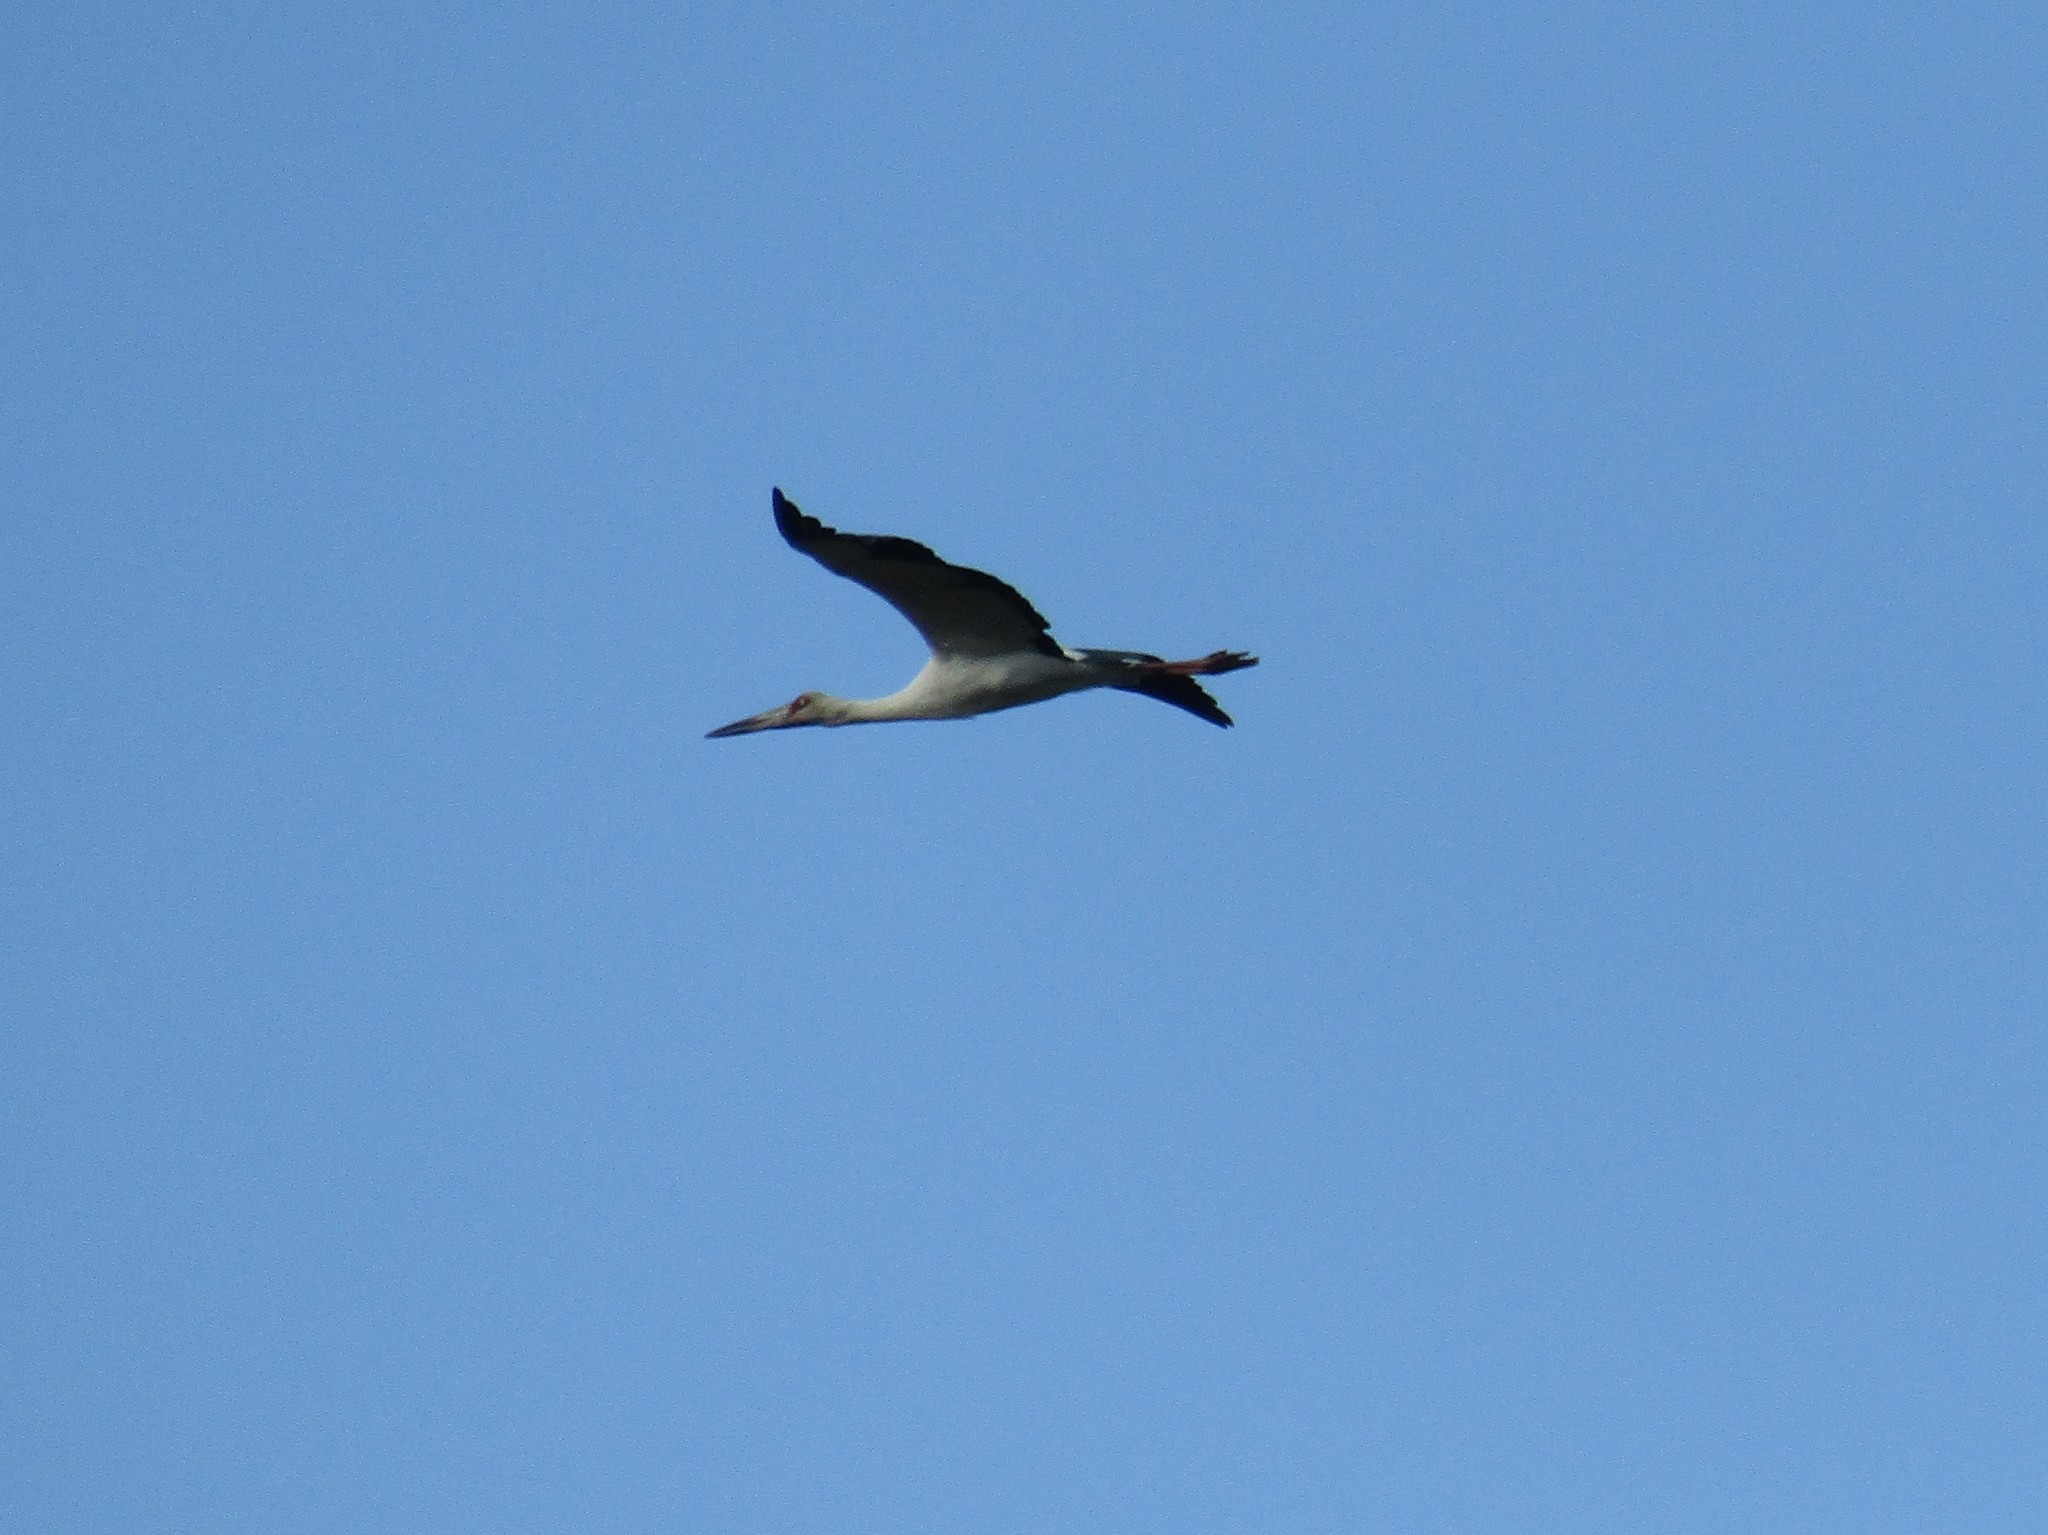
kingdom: Animalia
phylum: Chordata
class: Aves
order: Ciconiiformes
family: Ciconiidae
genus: Ciconia
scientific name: Ciconia maguari
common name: Maguari stork
